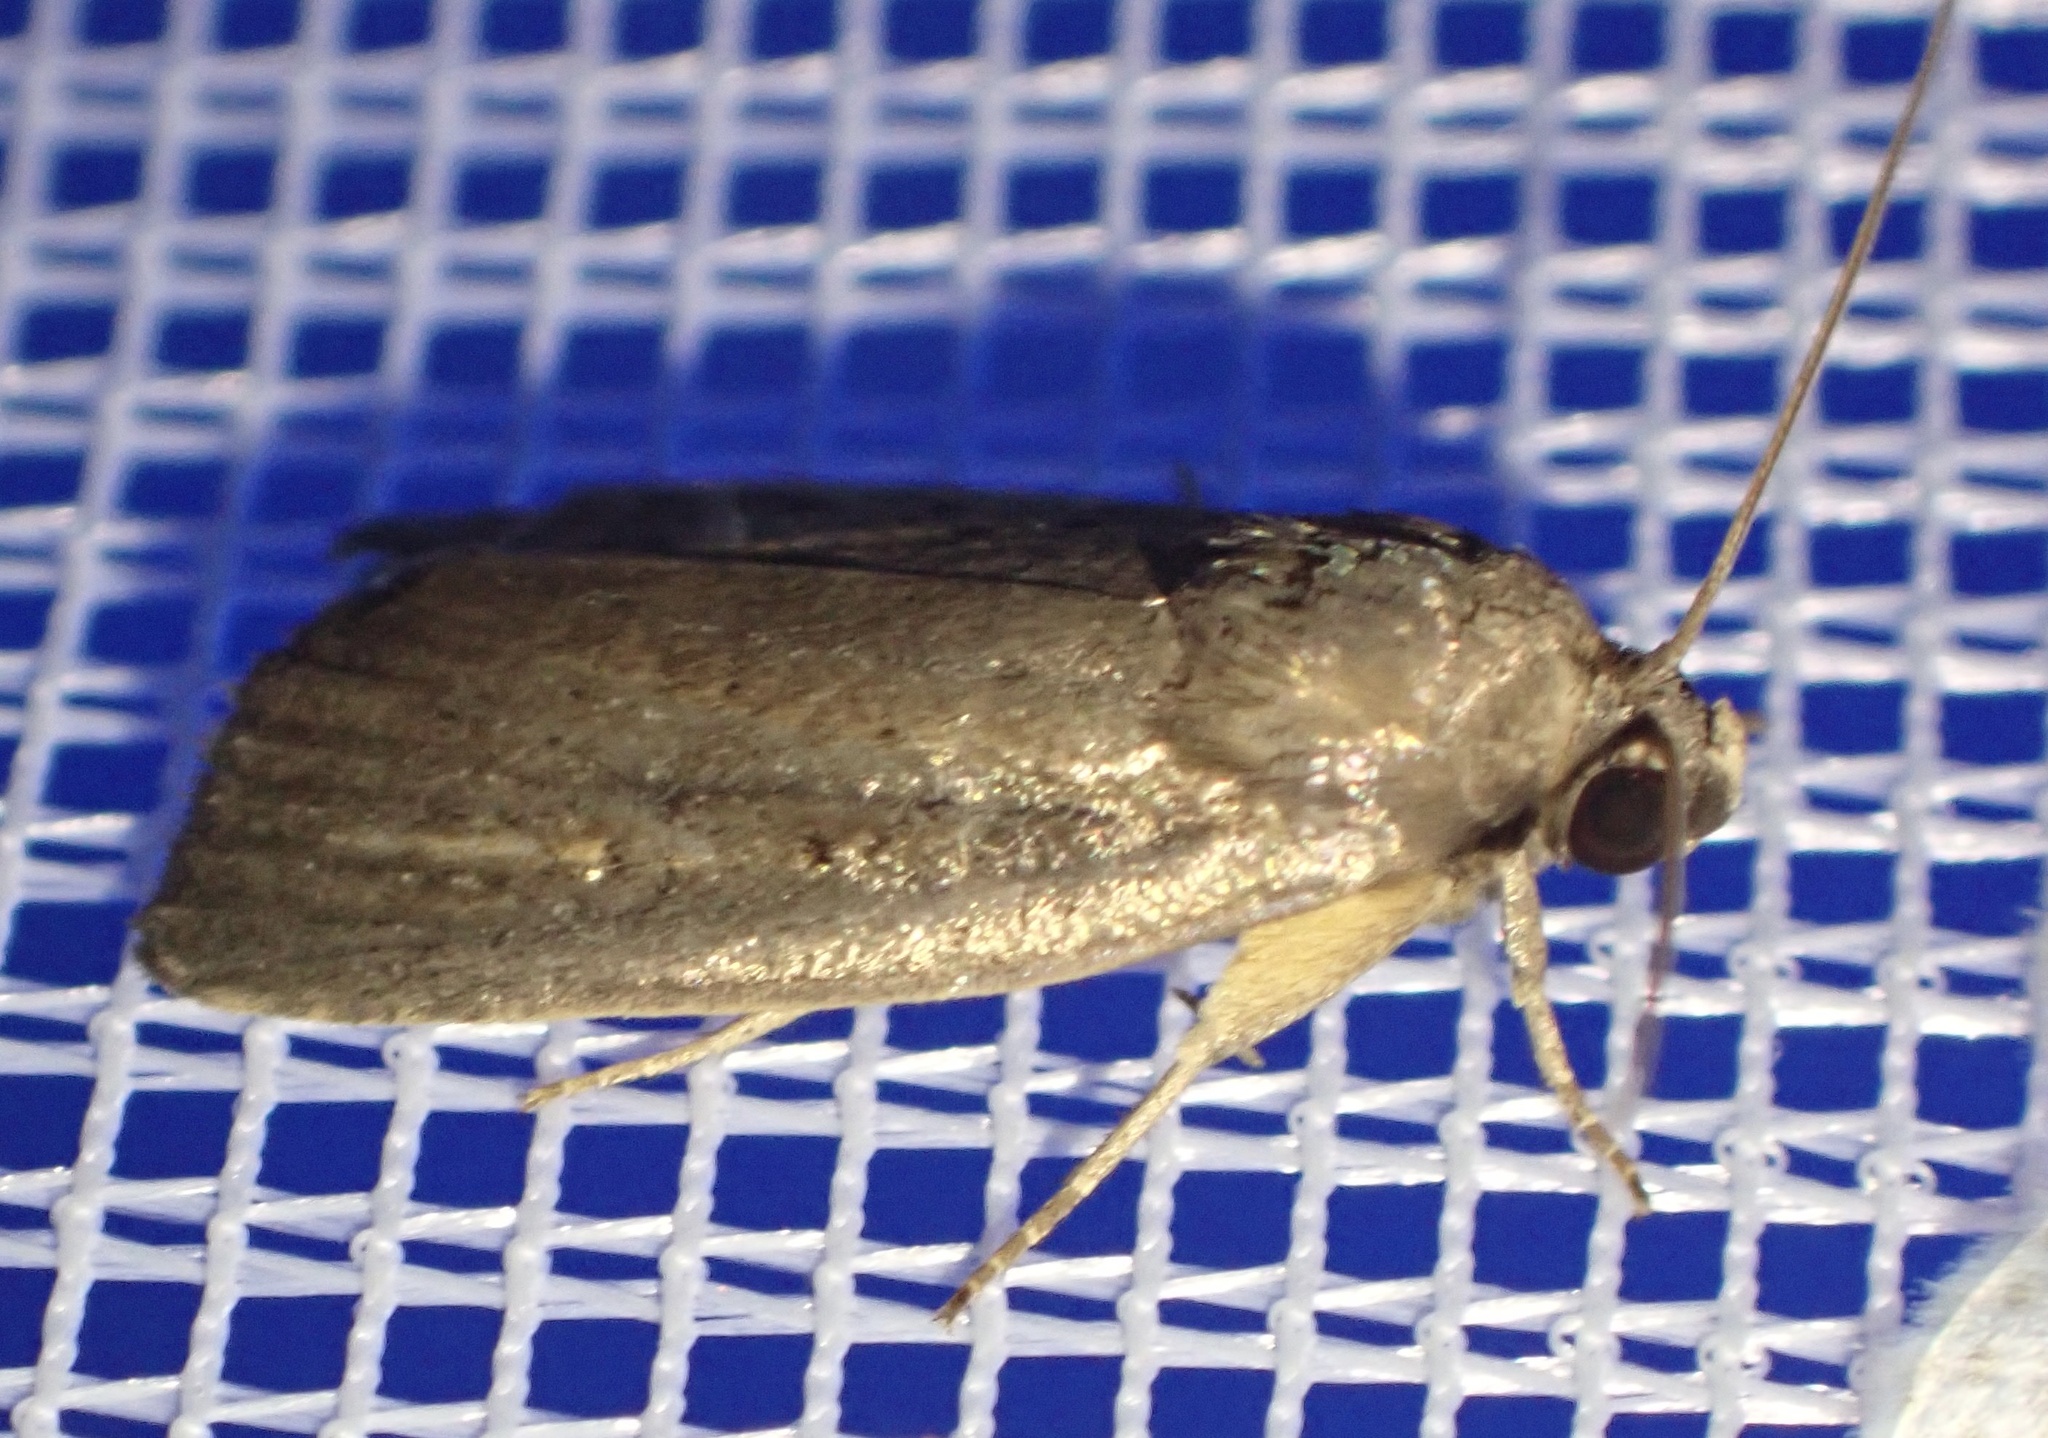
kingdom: Animalia
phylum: Arthropoda
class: Insecta
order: Lepidoptera
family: Noctuidae
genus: Athetis
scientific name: Athetis hospes
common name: Porter's rustic
